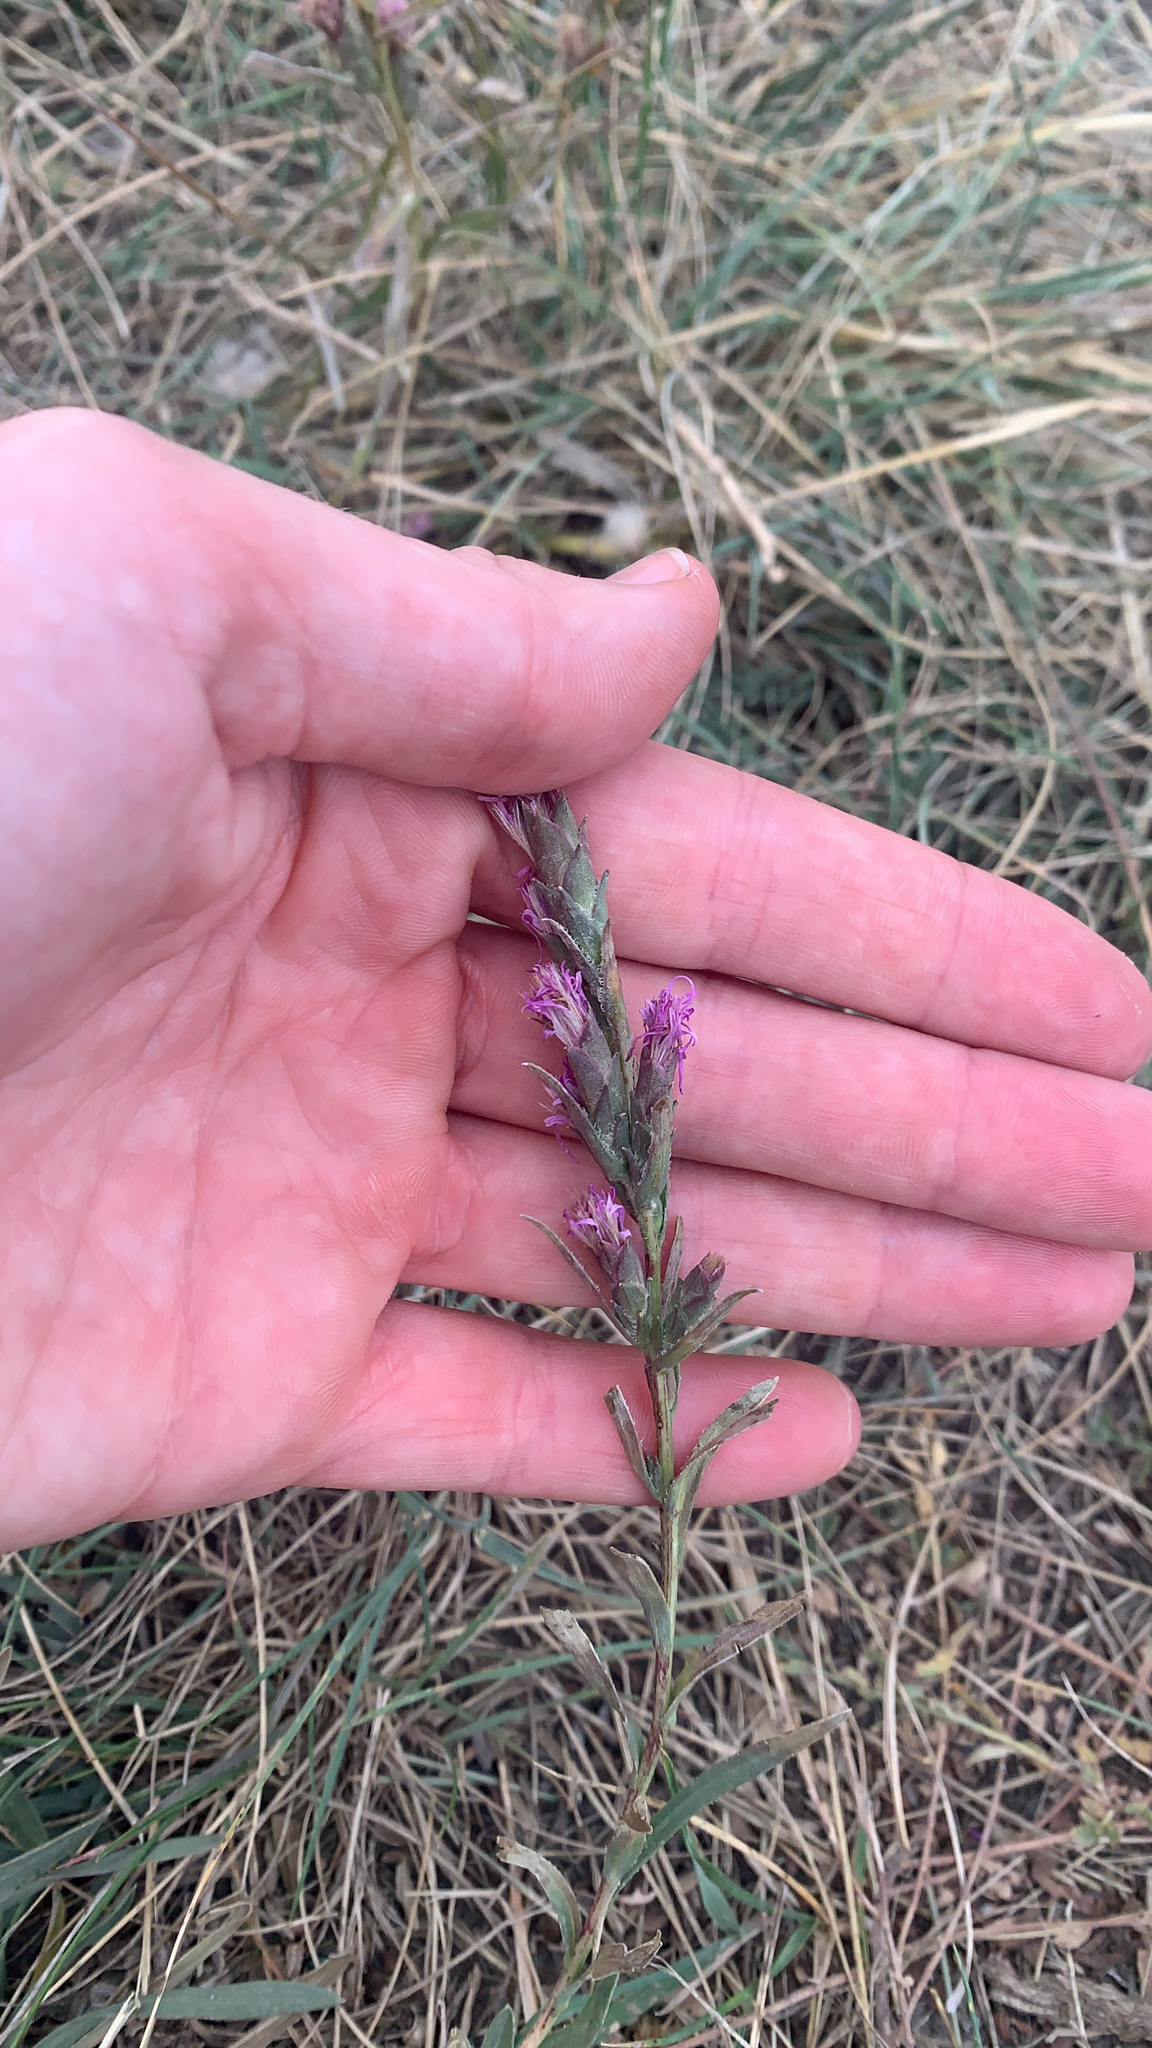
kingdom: Plantae
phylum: Tracheophyta
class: Magnoliopsida
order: Asterales
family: Asteraceae
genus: Liatris
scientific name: Liatris punctata
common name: Dotted gayfeather
